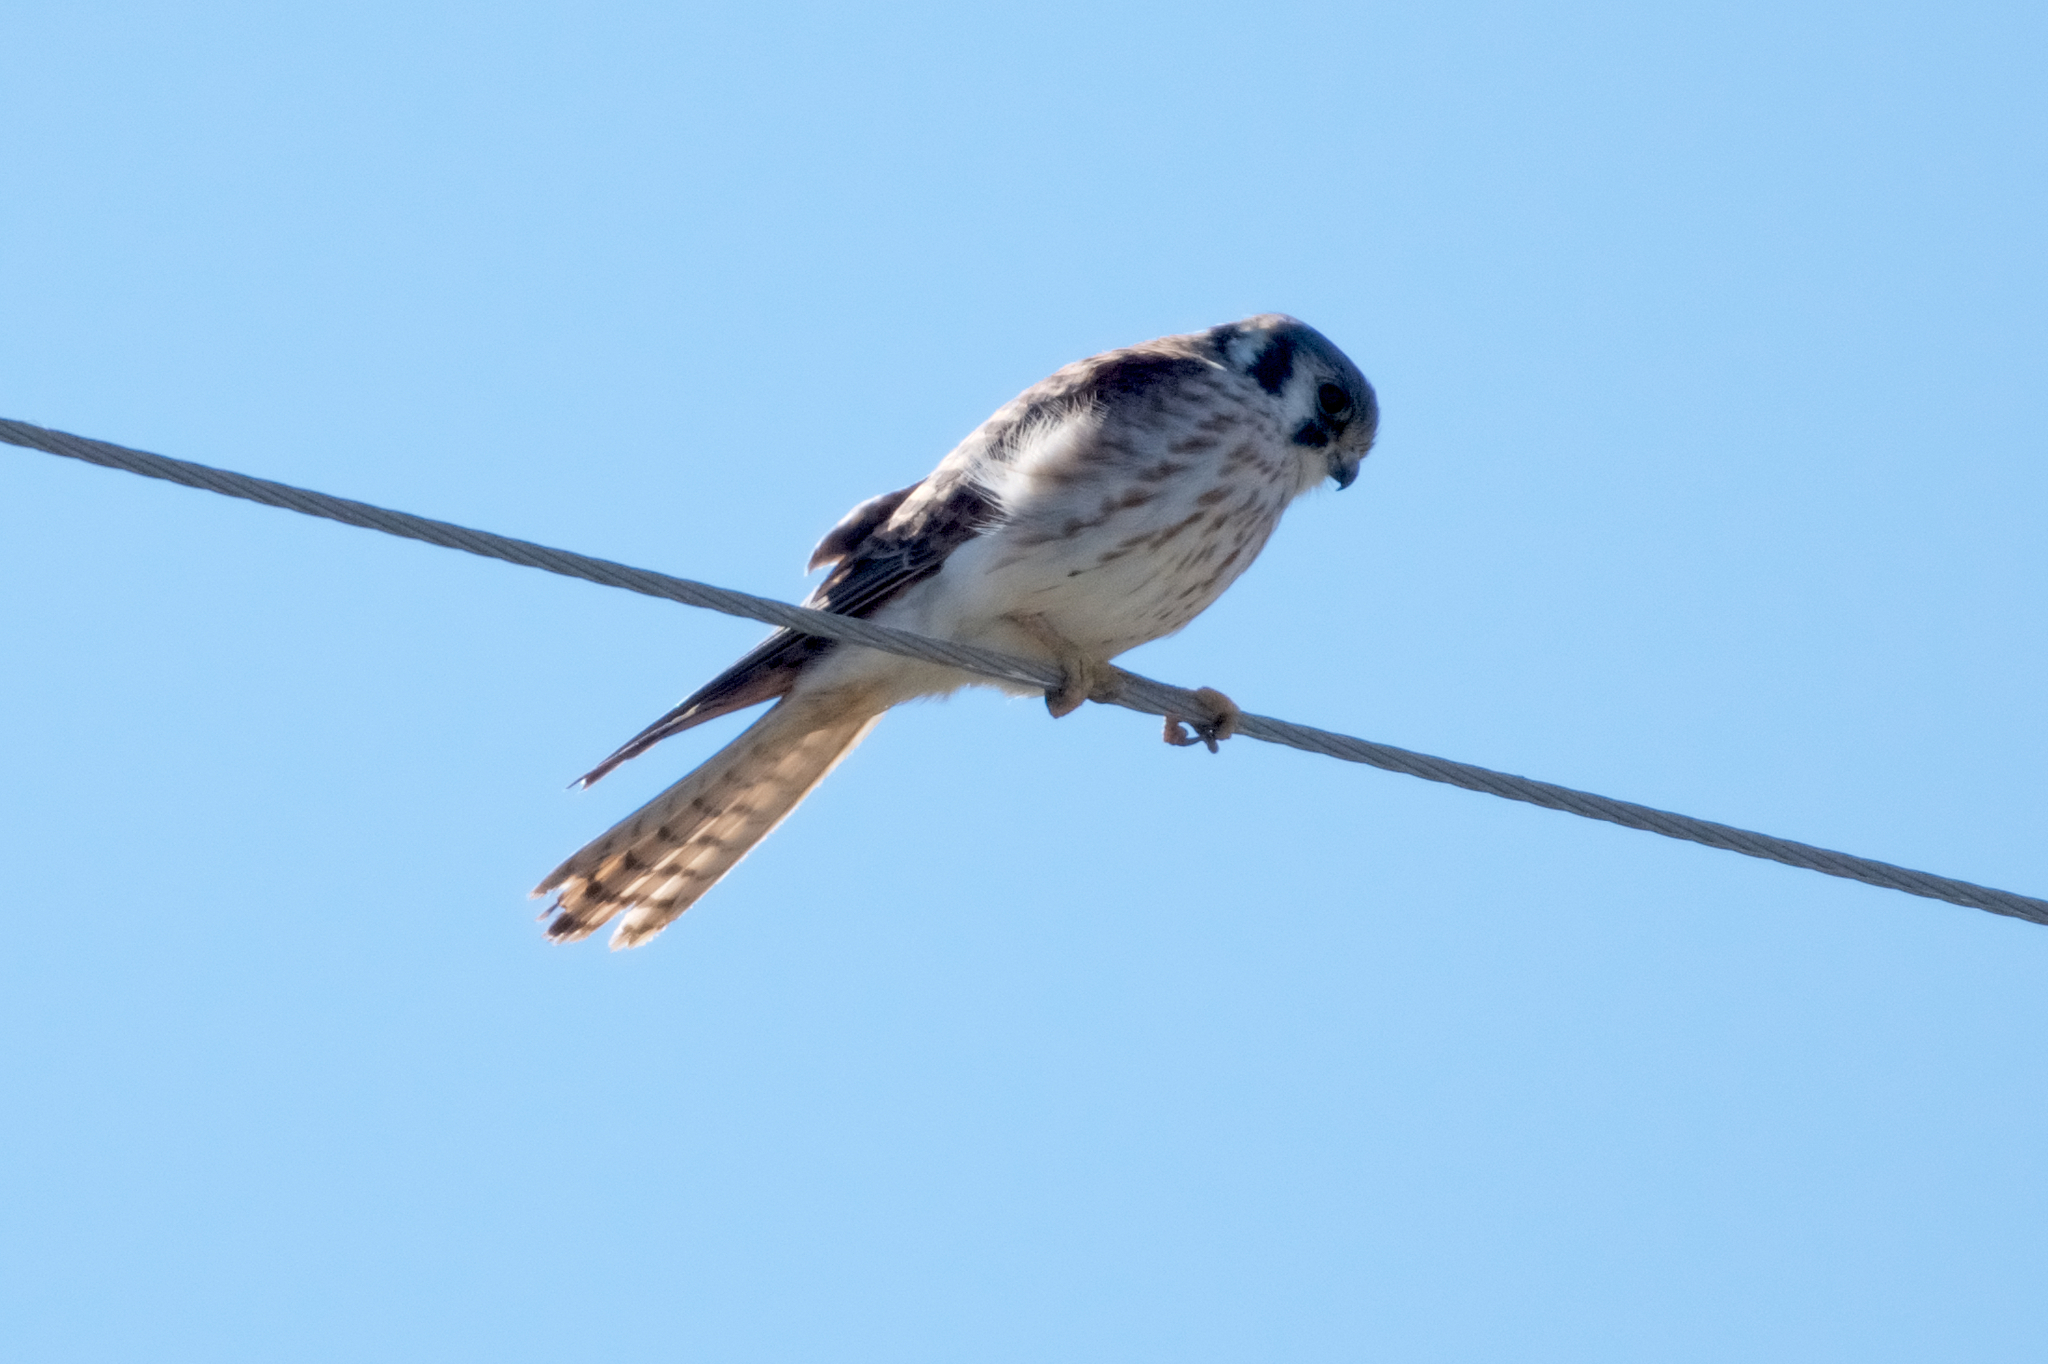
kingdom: Animalia
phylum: Chordata
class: Aves
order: Falconiformes
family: Falconidae
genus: Falco
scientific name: Falco sparverius
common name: American kestrel
